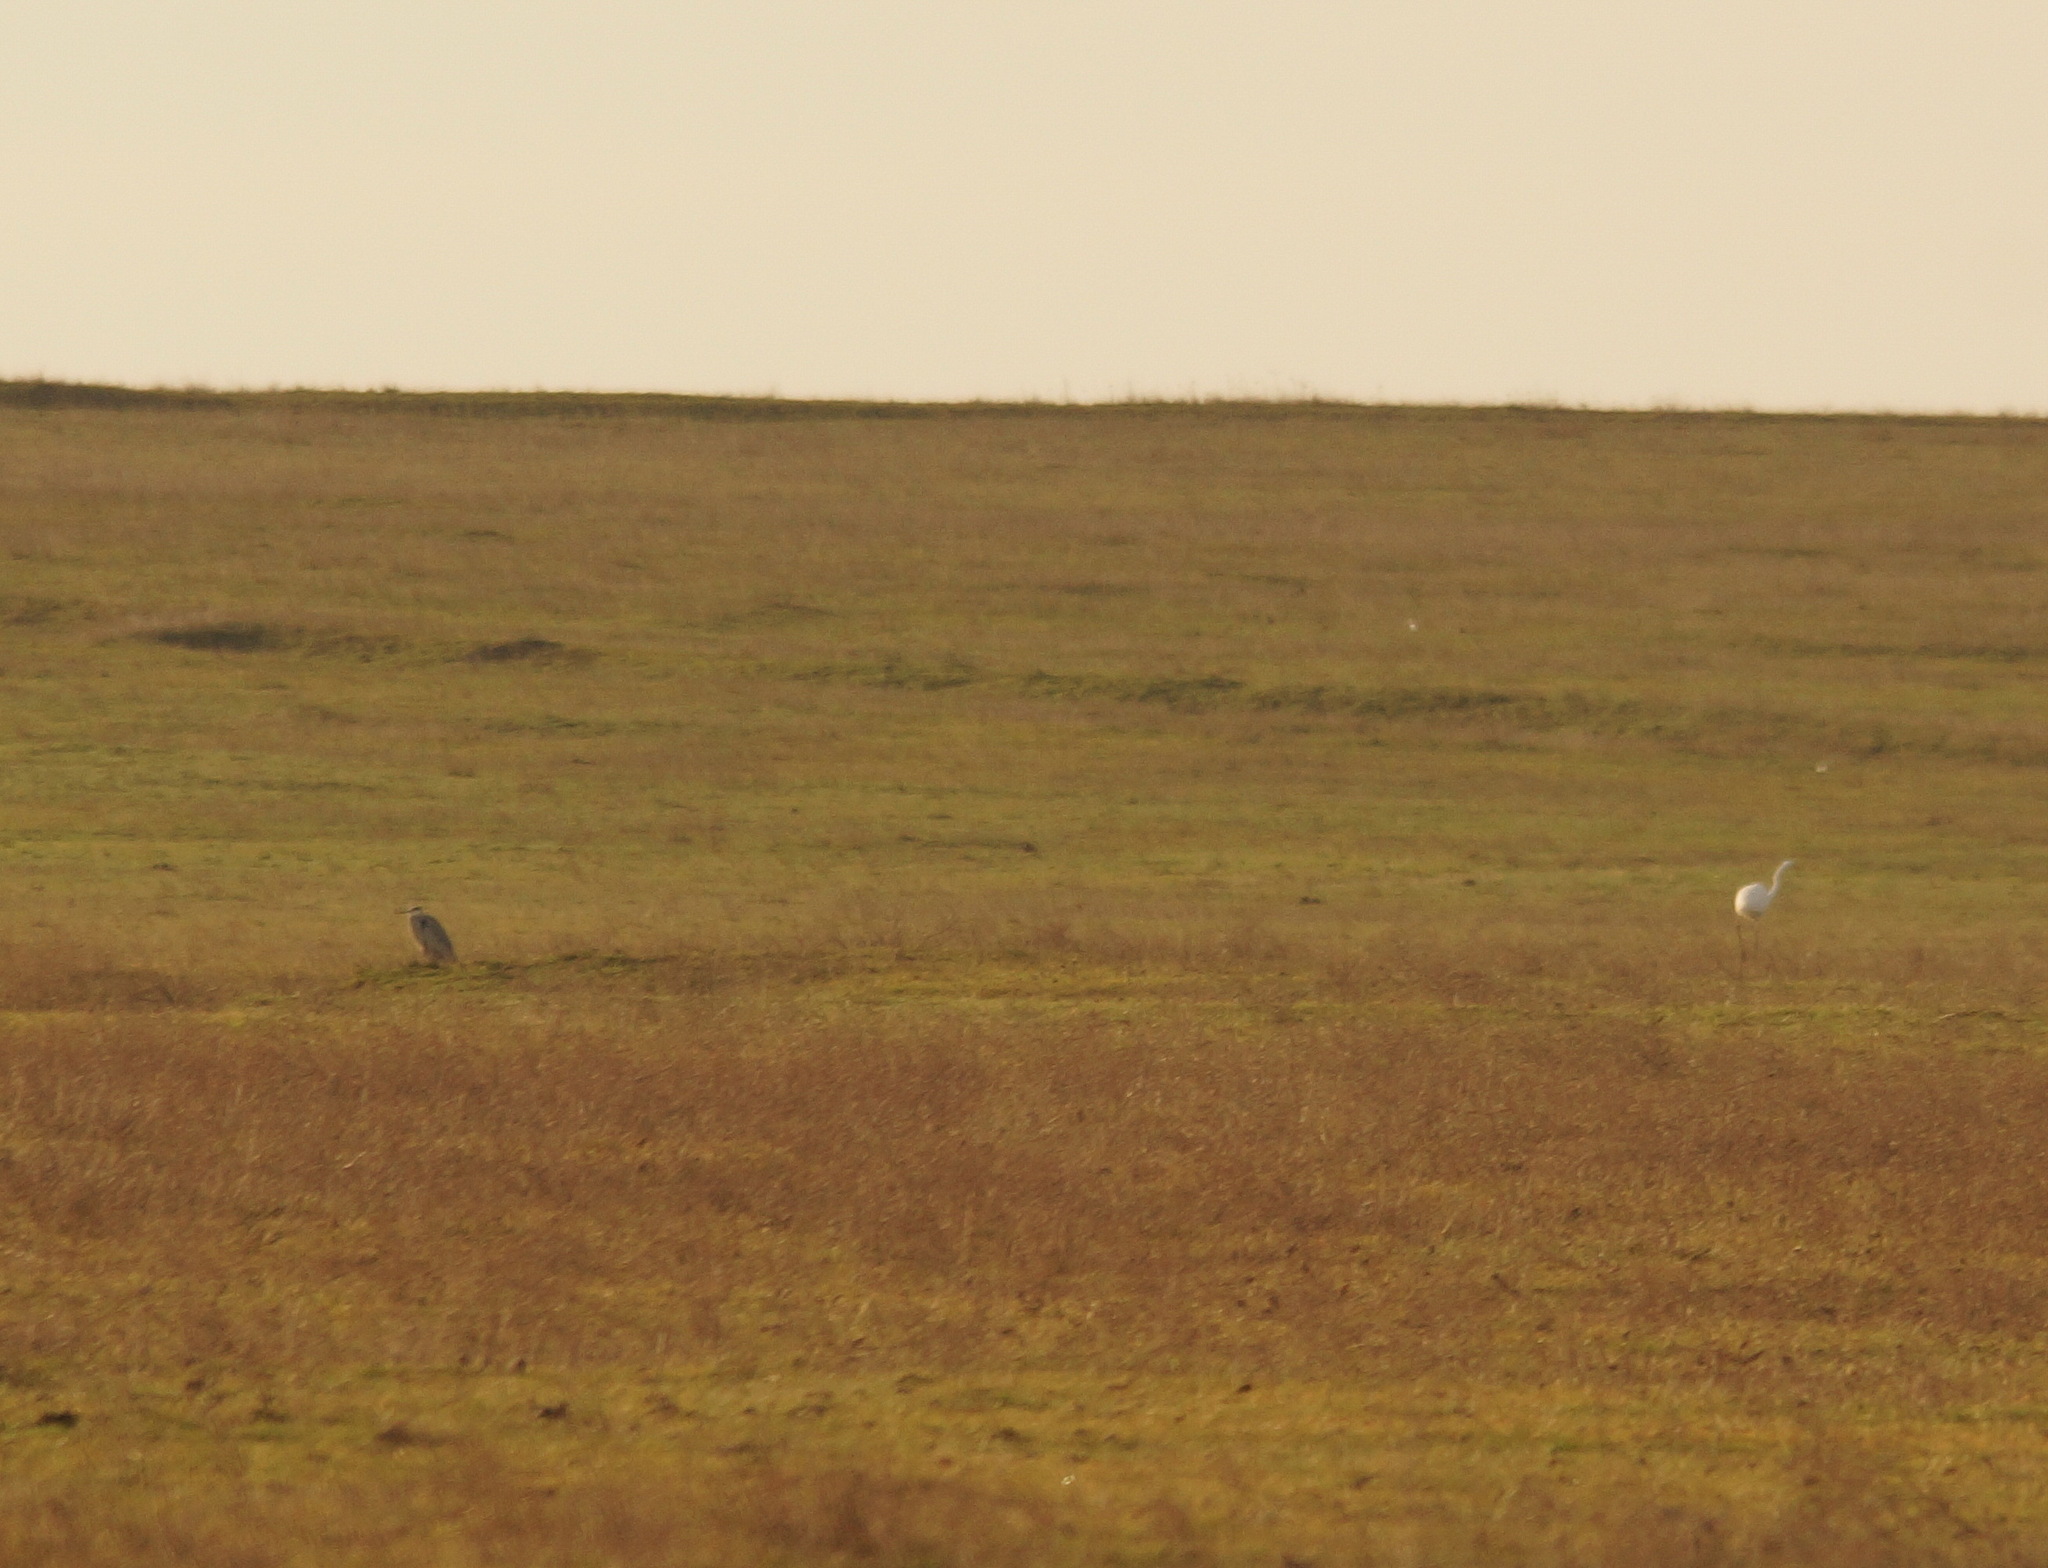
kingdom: Animalia
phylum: Chordata
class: Aves
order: Pelecaniformes
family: Ardeidae
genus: Ardea
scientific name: Ardea alba
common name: Great egret
